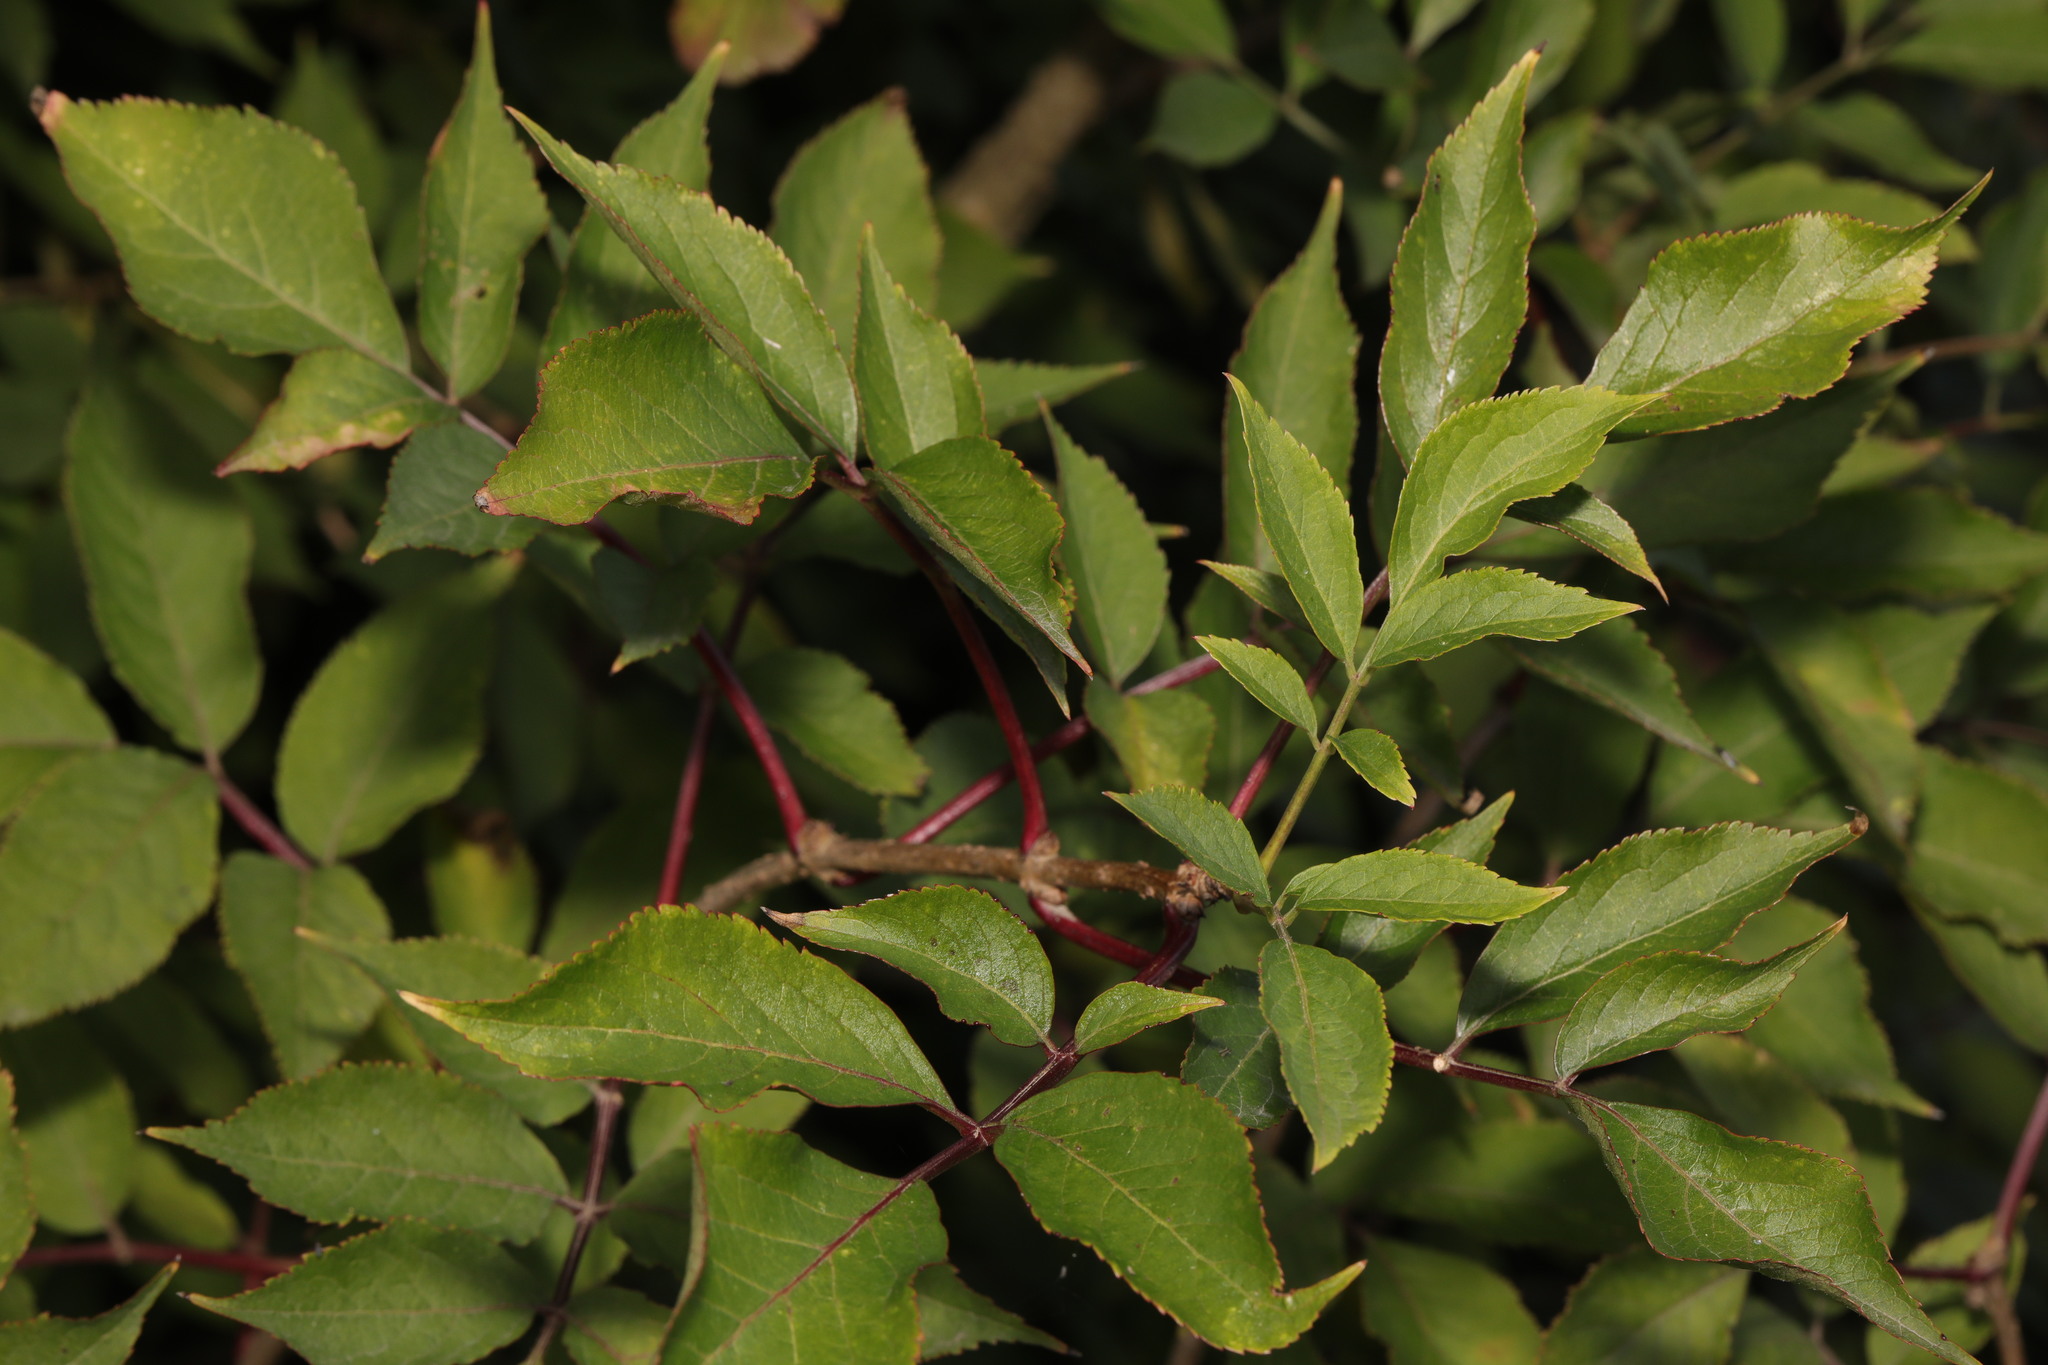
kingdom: Plantae
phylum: Tracheophyta
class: Magnoliopsida
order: Dipsacales
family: Viburnaceae
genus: Sambucus
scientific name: Sambucus nigra
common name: Elder
